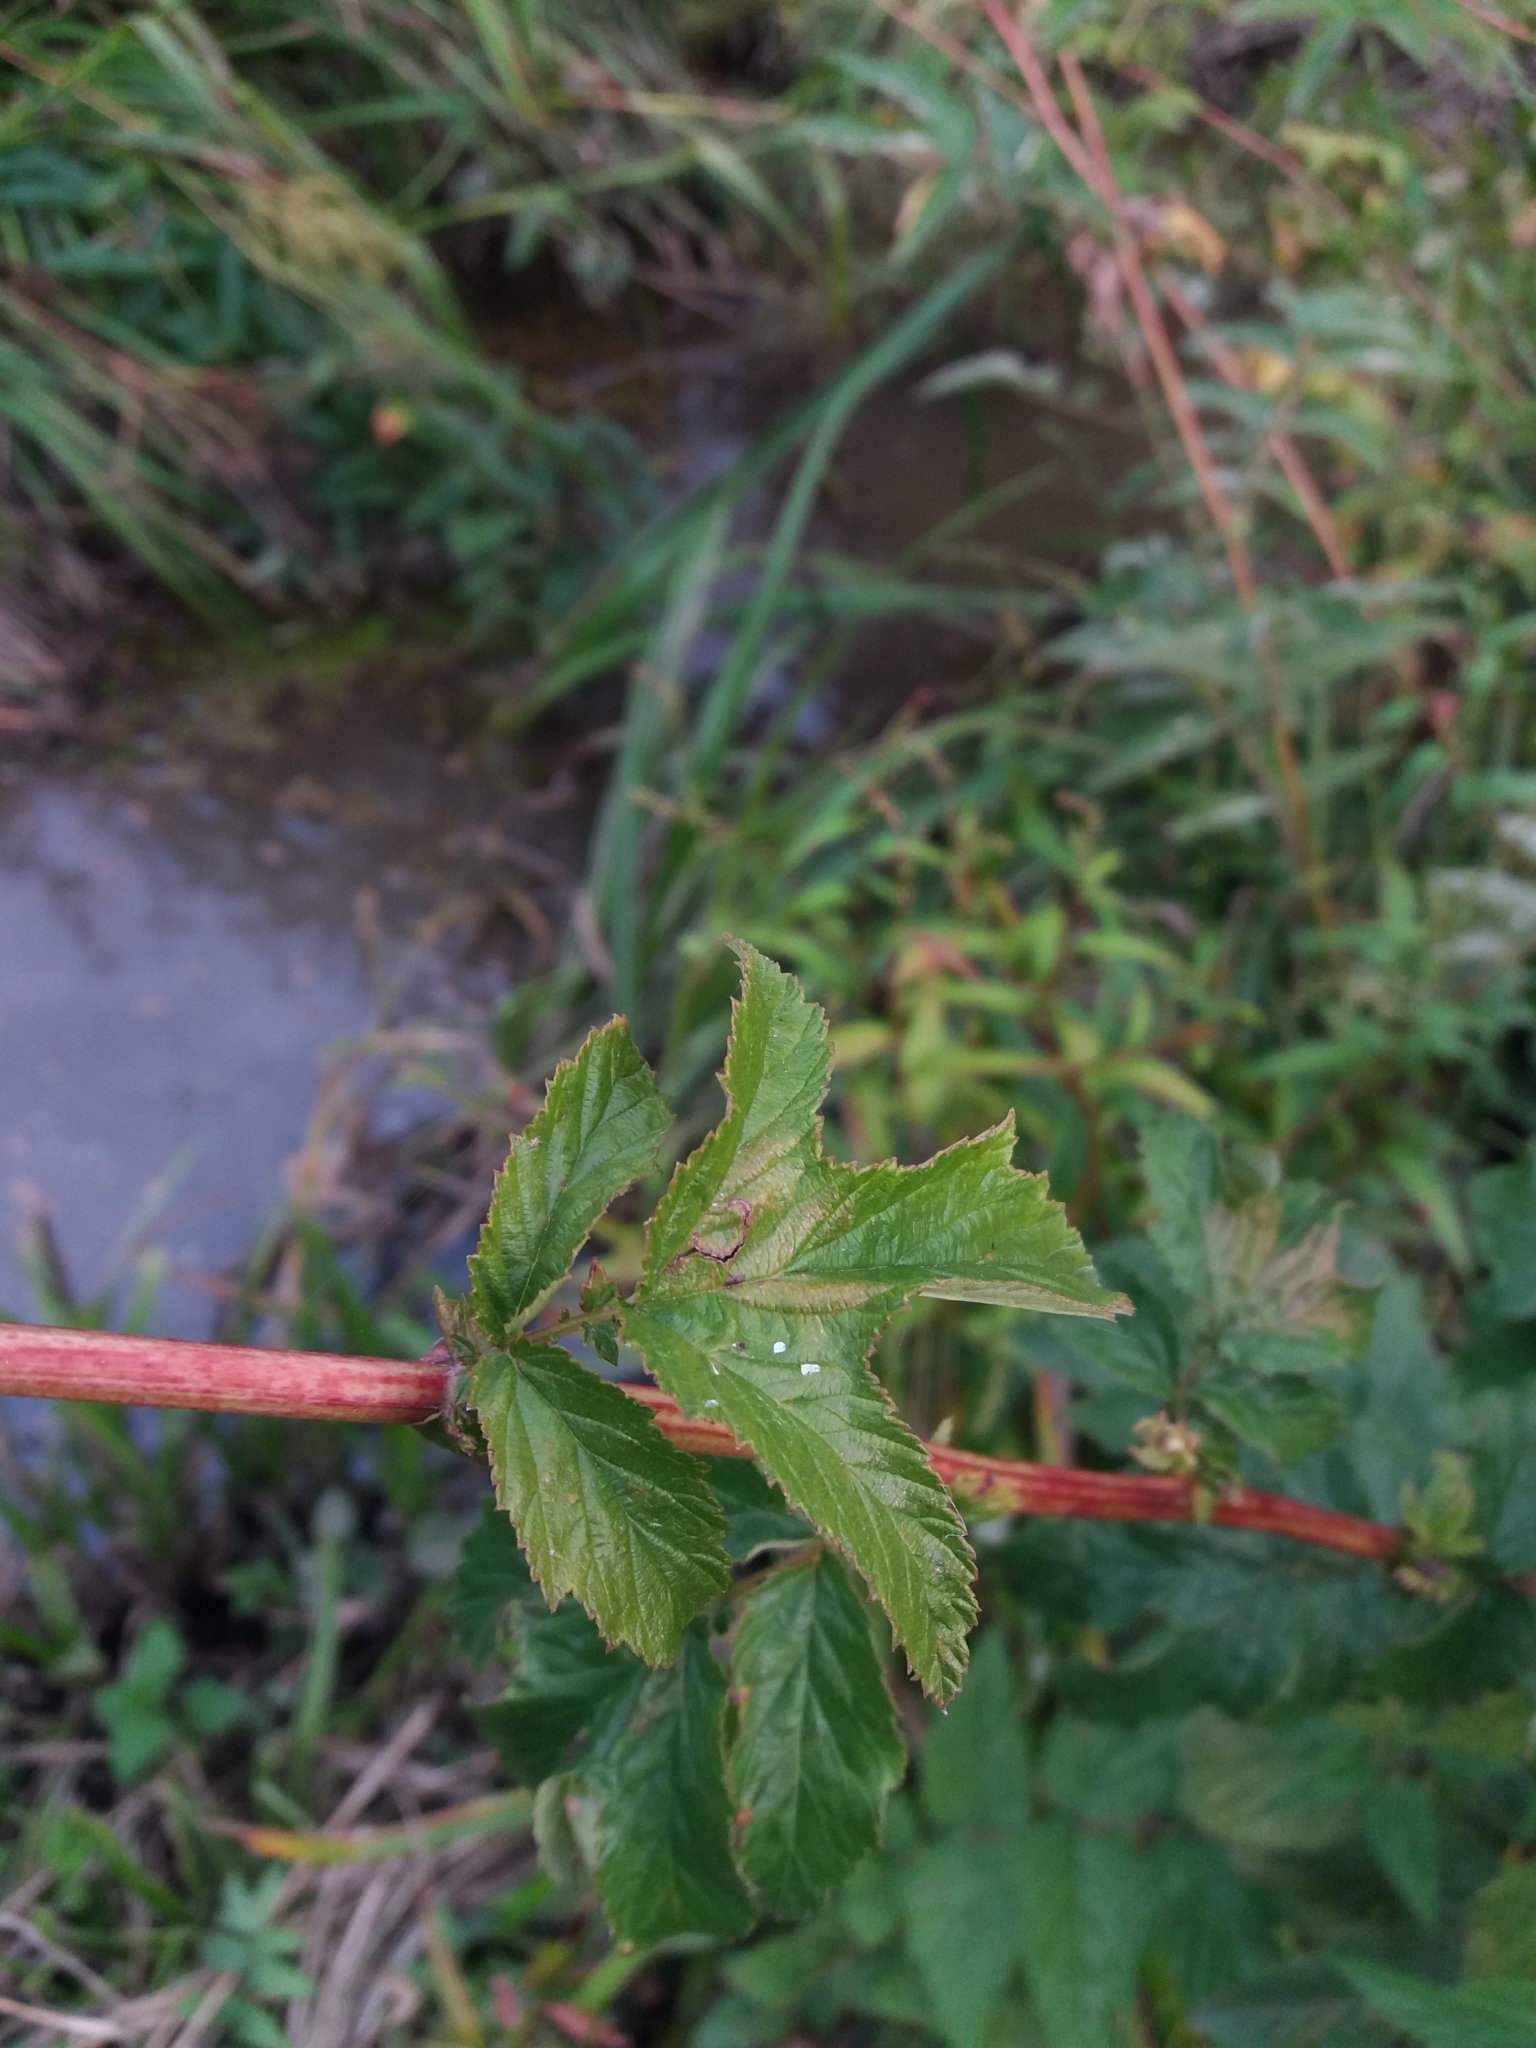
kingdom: Plantae
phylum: Tracheophyta
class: Magnoliopsida
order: Rosales
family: Rosaceae
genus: Filipendula
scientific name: Filipendula ulmaria
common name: Meadowsweet
